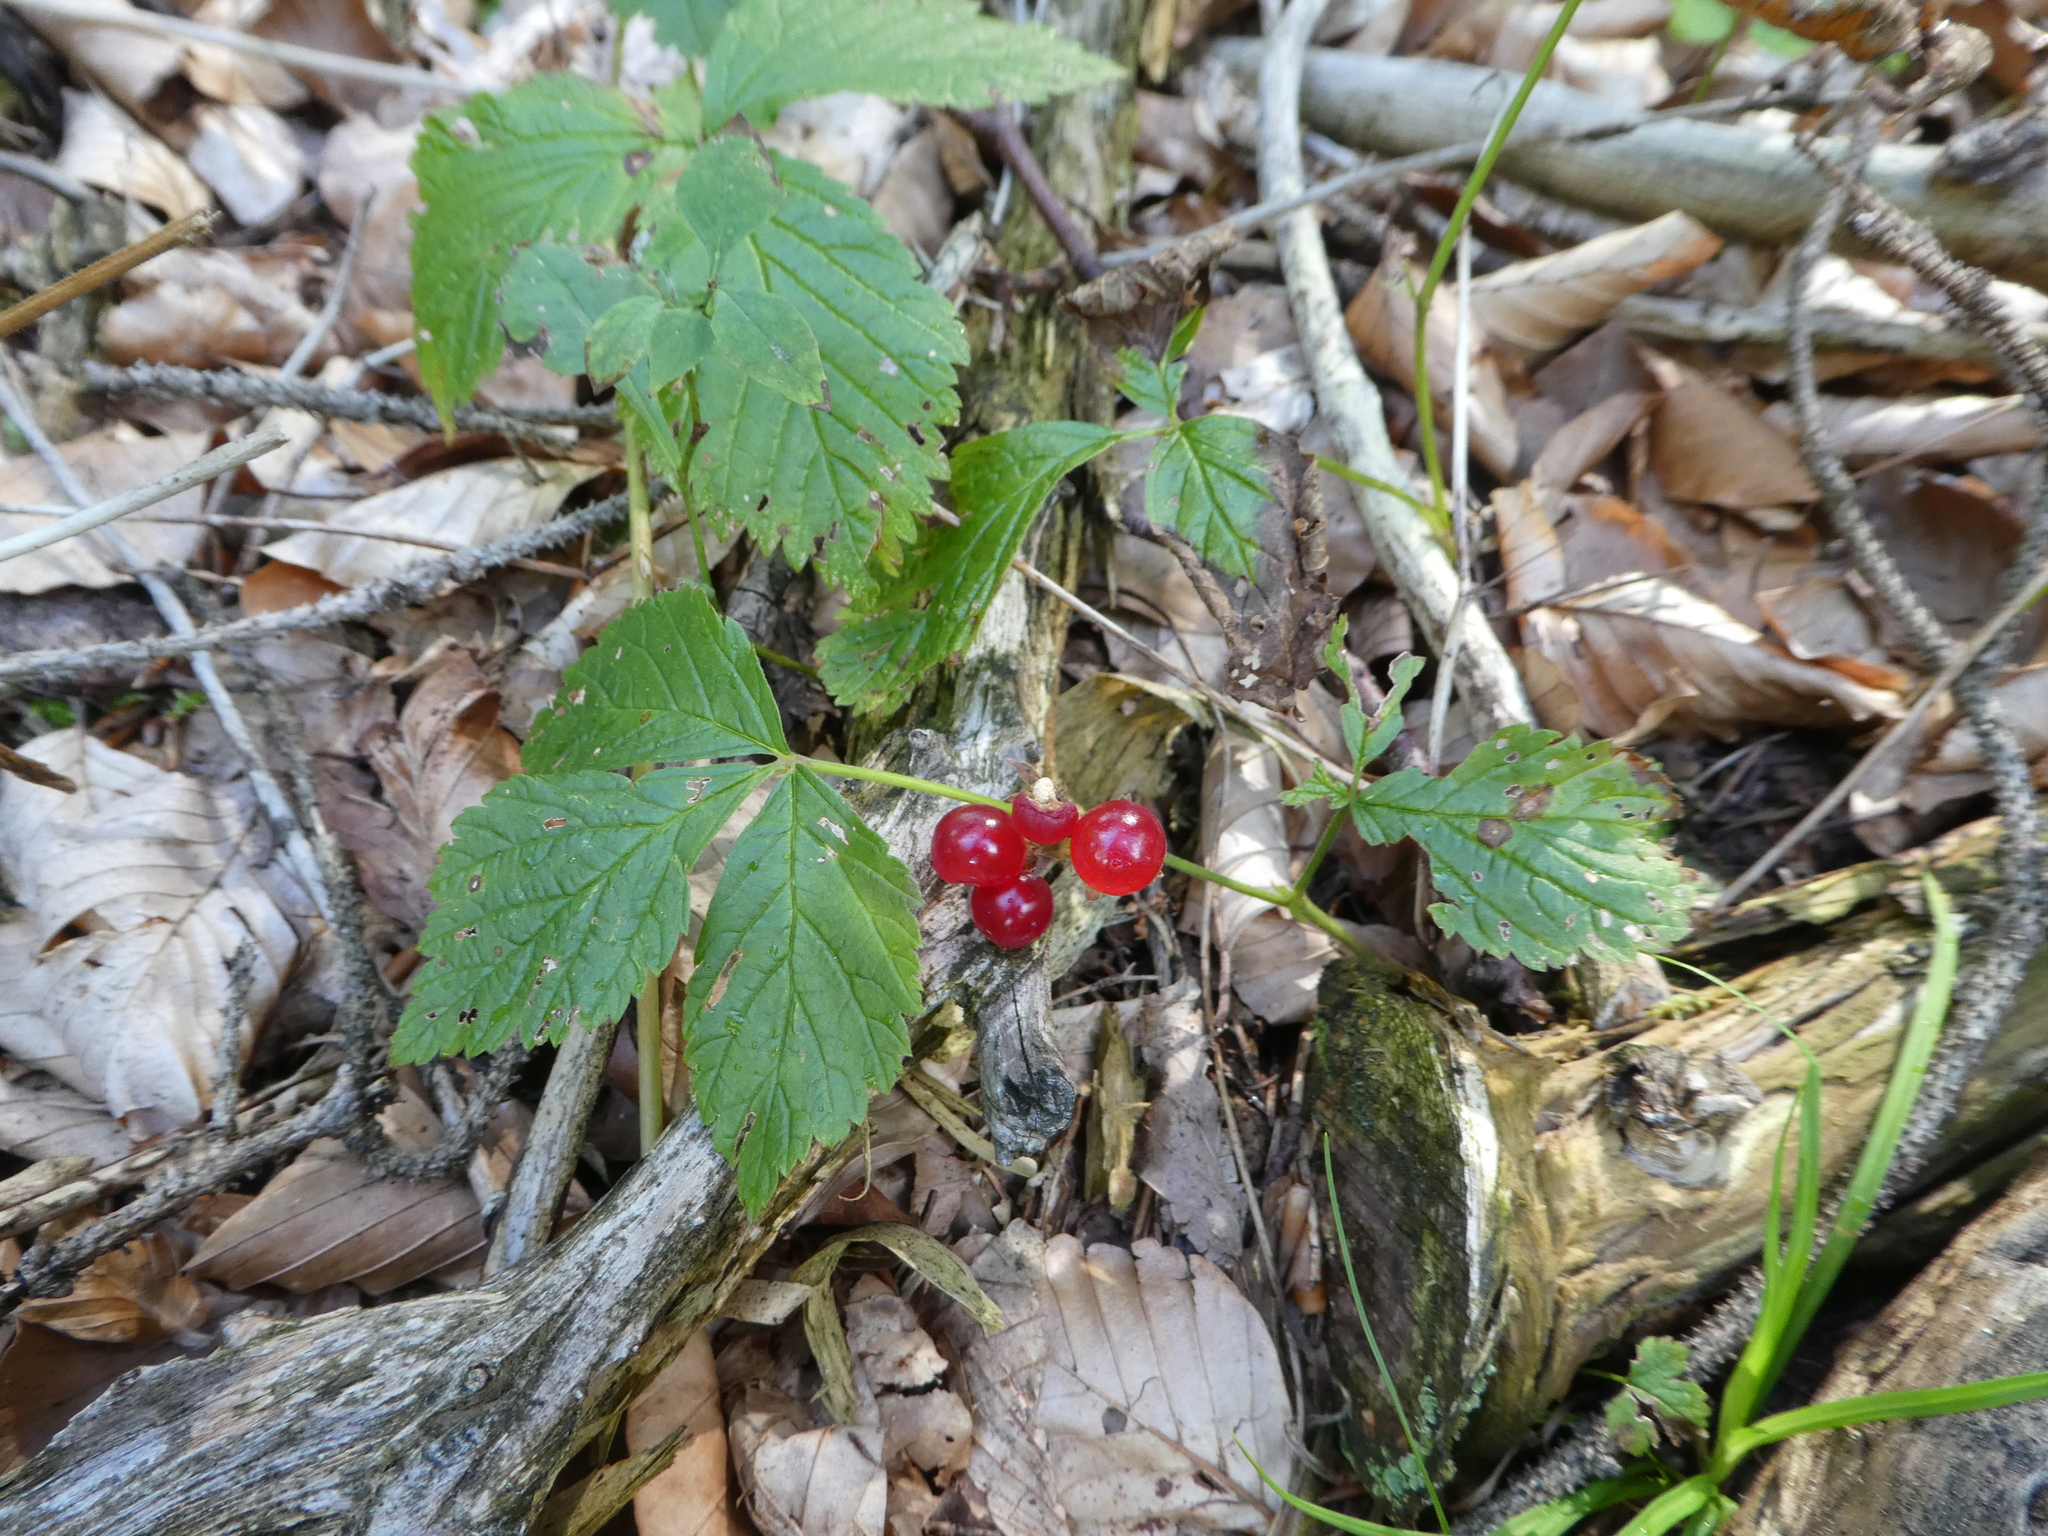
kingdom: Plantae
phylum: Tracheophyta
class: Magnoliopsida
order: Rosales
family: Rosaceae
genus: Rubus
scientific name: Rubus saxatilis
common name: Stone bramble
